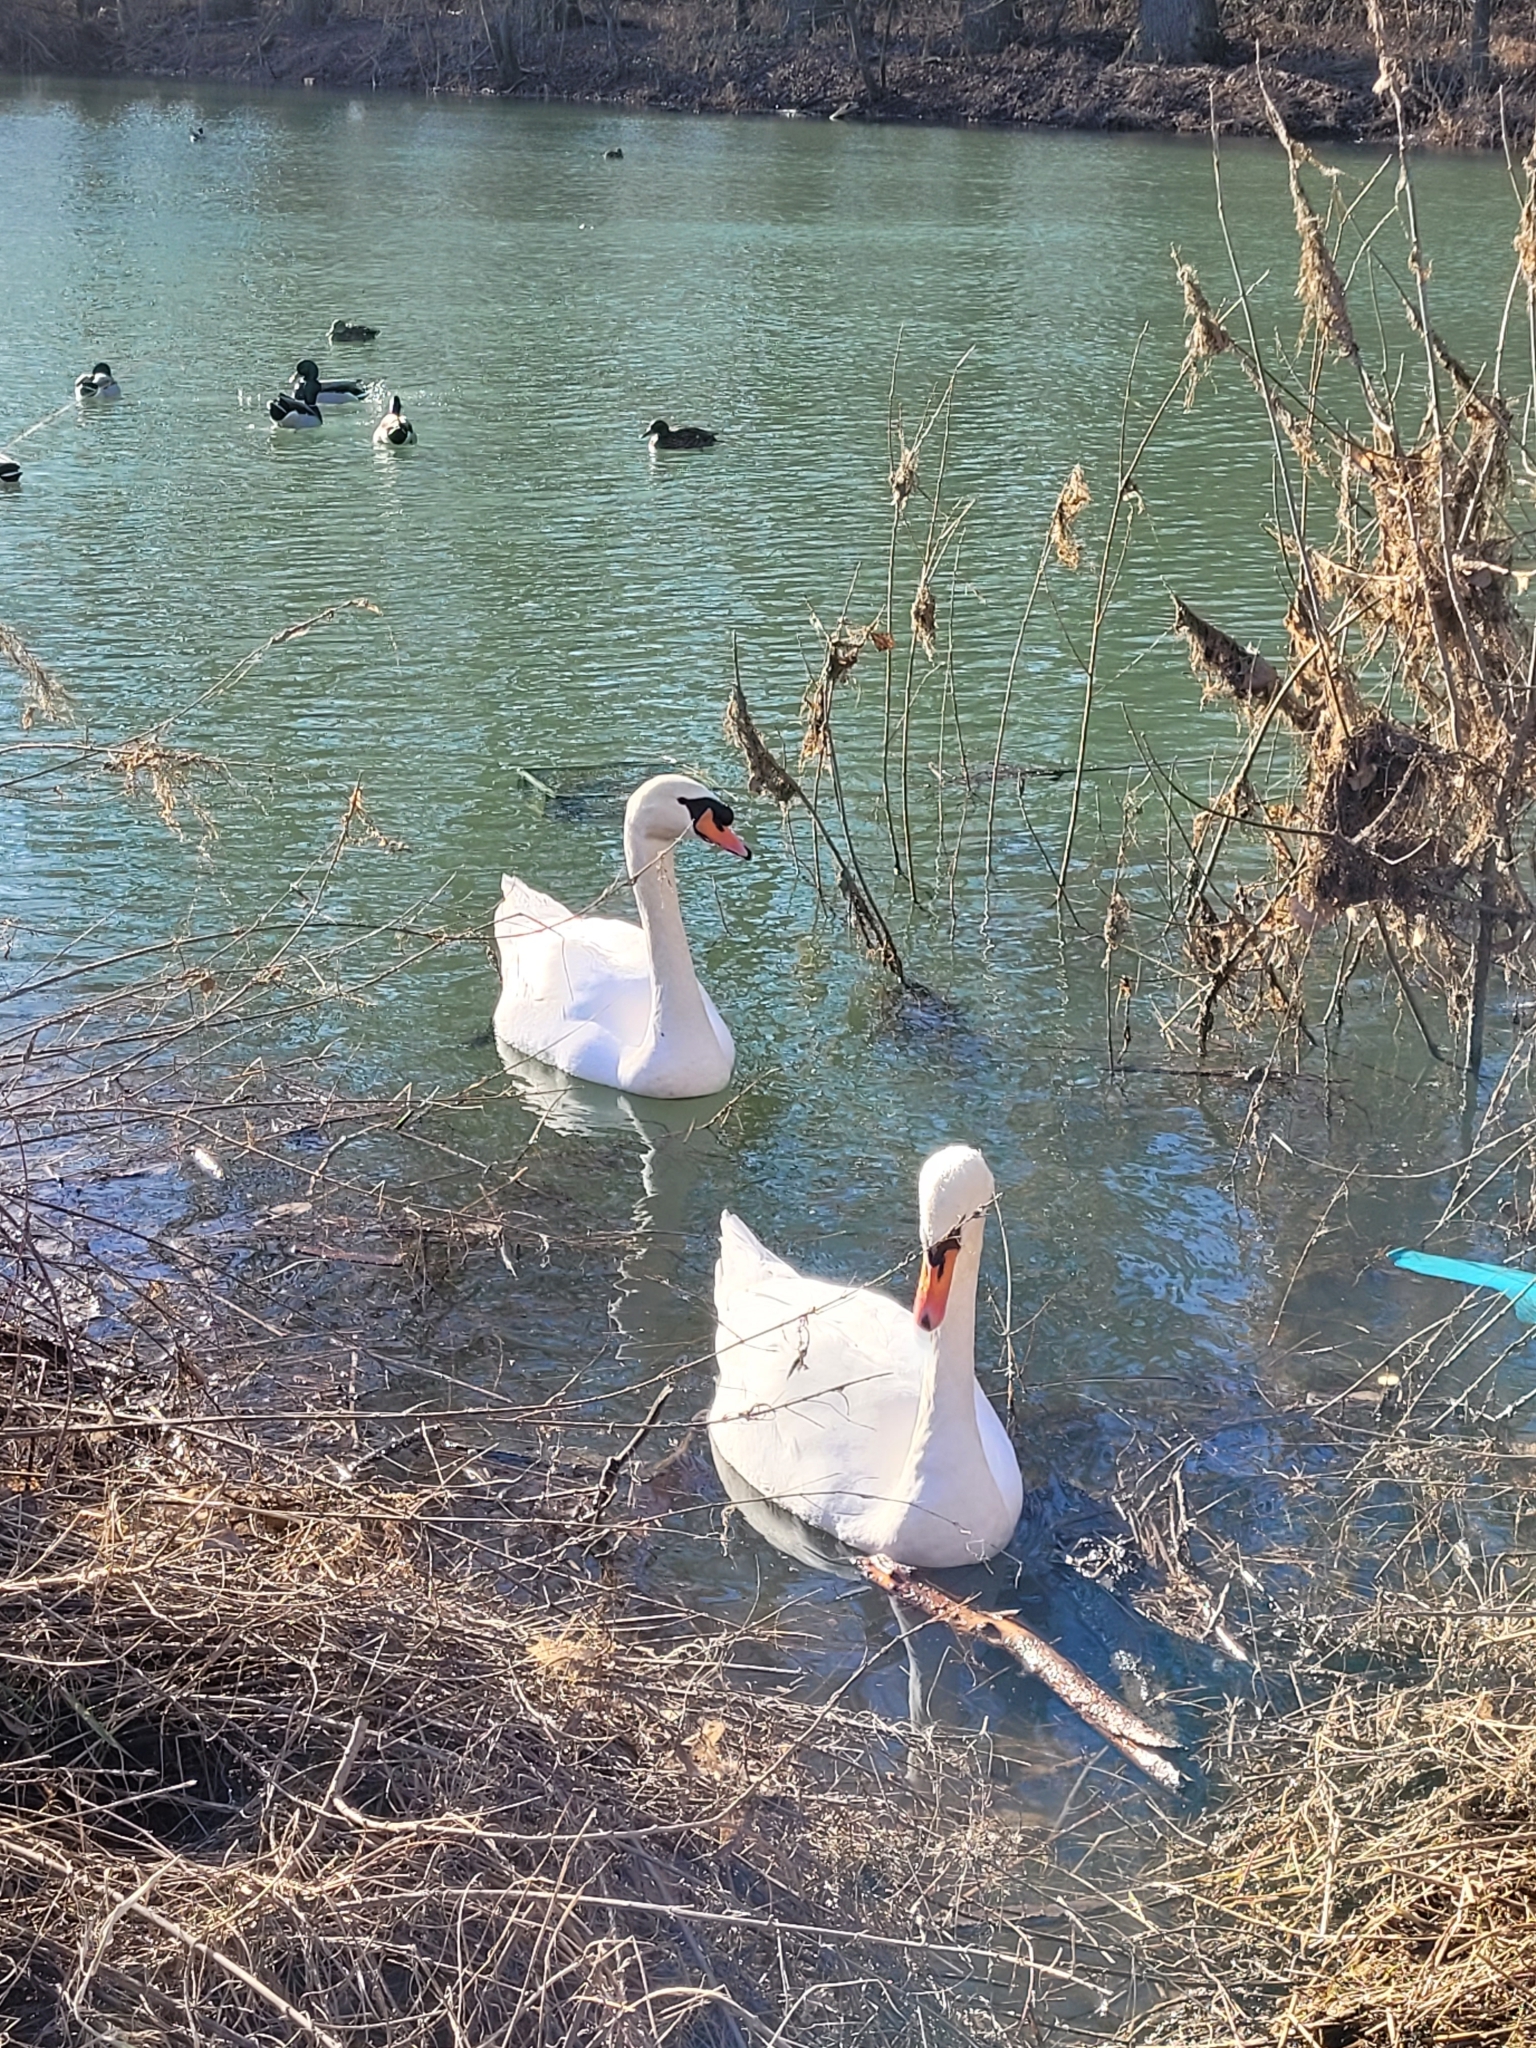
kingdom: Animalia
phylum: Chordata
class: Aves
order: Anseriformes
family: Anatidae
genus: Cygnus
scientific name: Cygnus olor
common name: Mute swan
